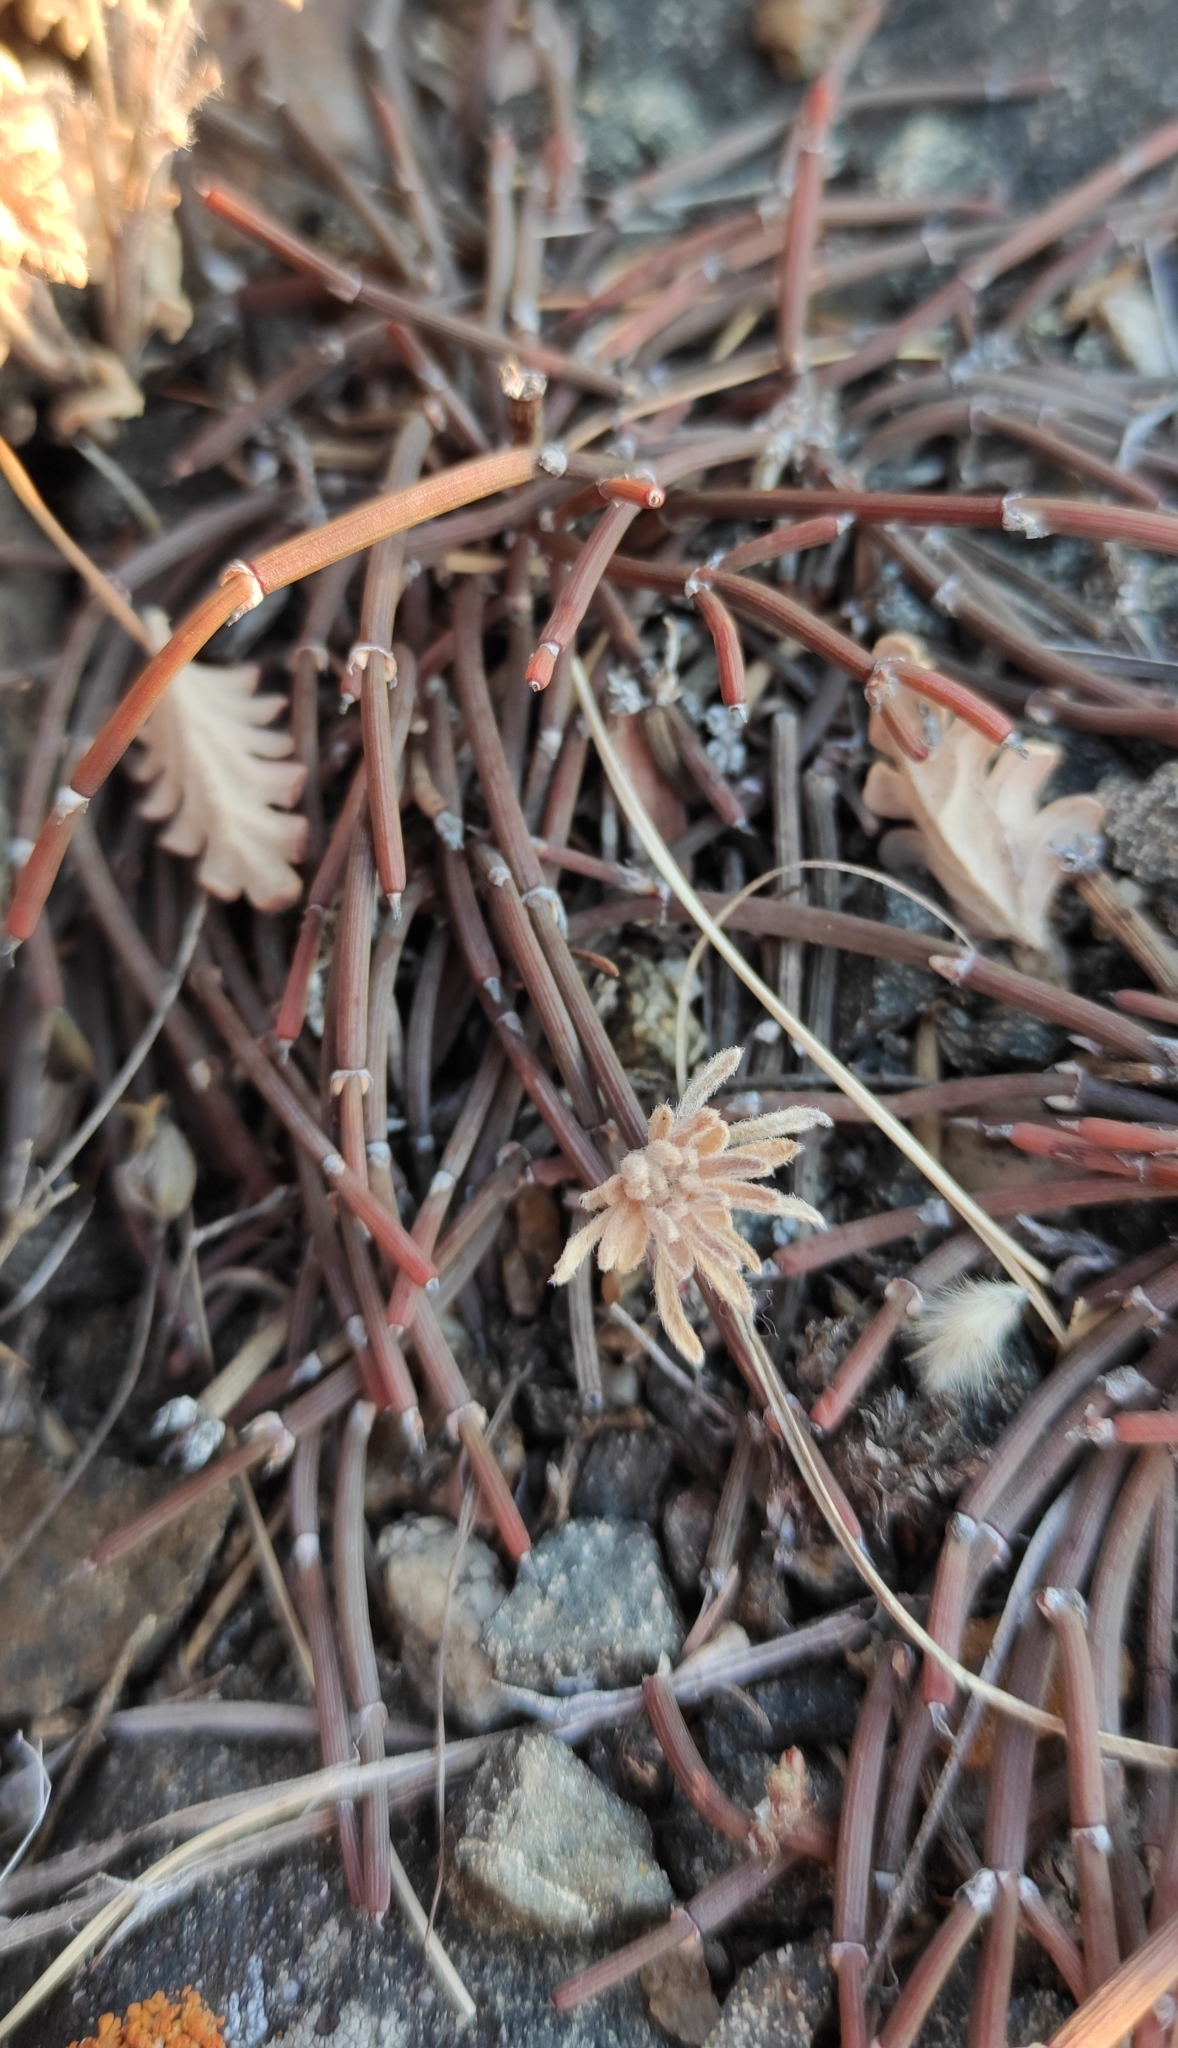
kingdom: Plantae
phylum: Tracheophyta
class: Gnetopsida
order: Ephedrales
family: Ephedraceae
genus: Ephedra
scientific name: Ephedra monosperma
